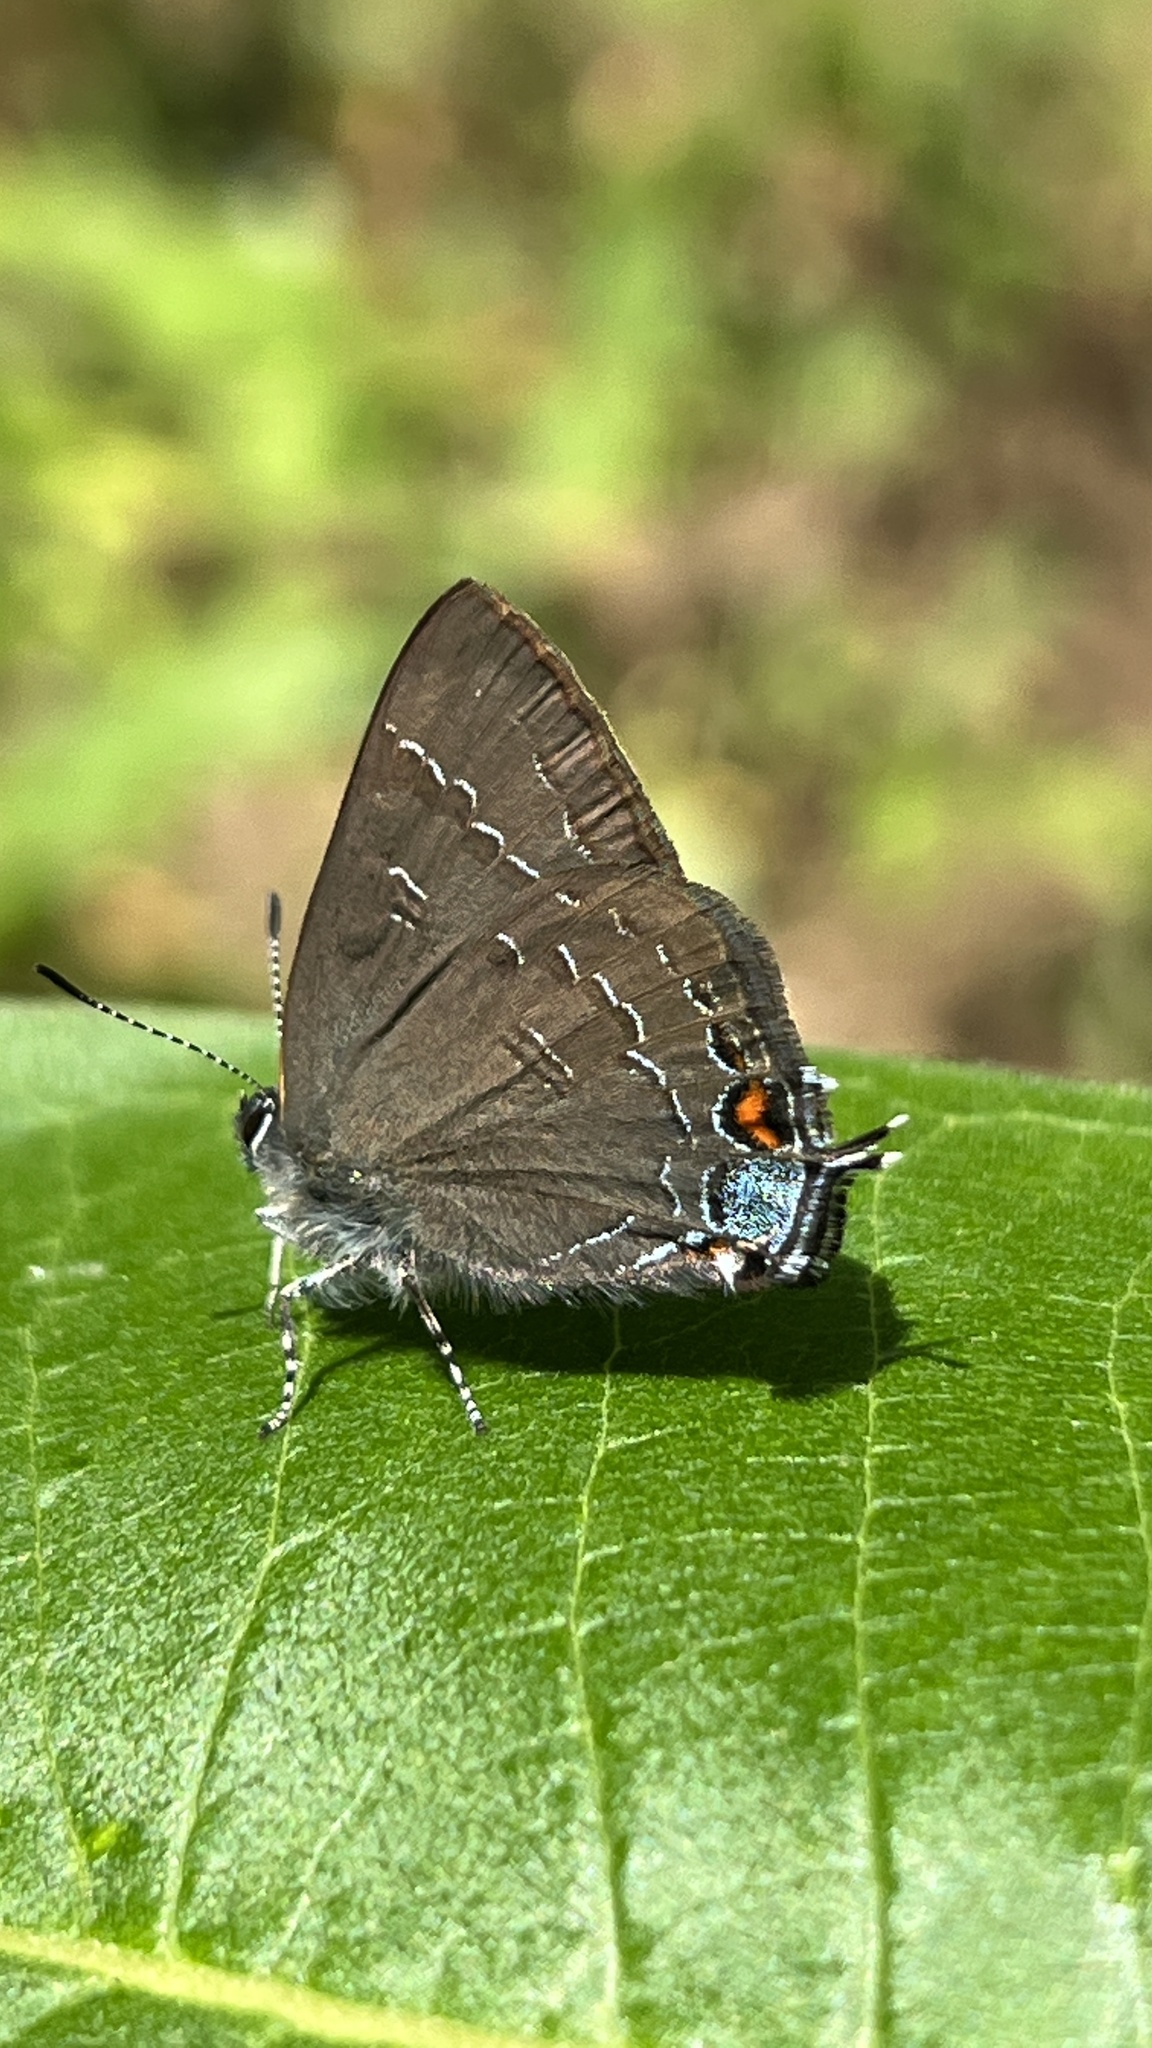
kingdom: Animalia
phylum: Arthropoda
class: Insecta
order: Lepidoptera
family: Lycaenidae
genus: Satyrium
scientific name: Satyrium calanus
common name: Banded hairstreak
